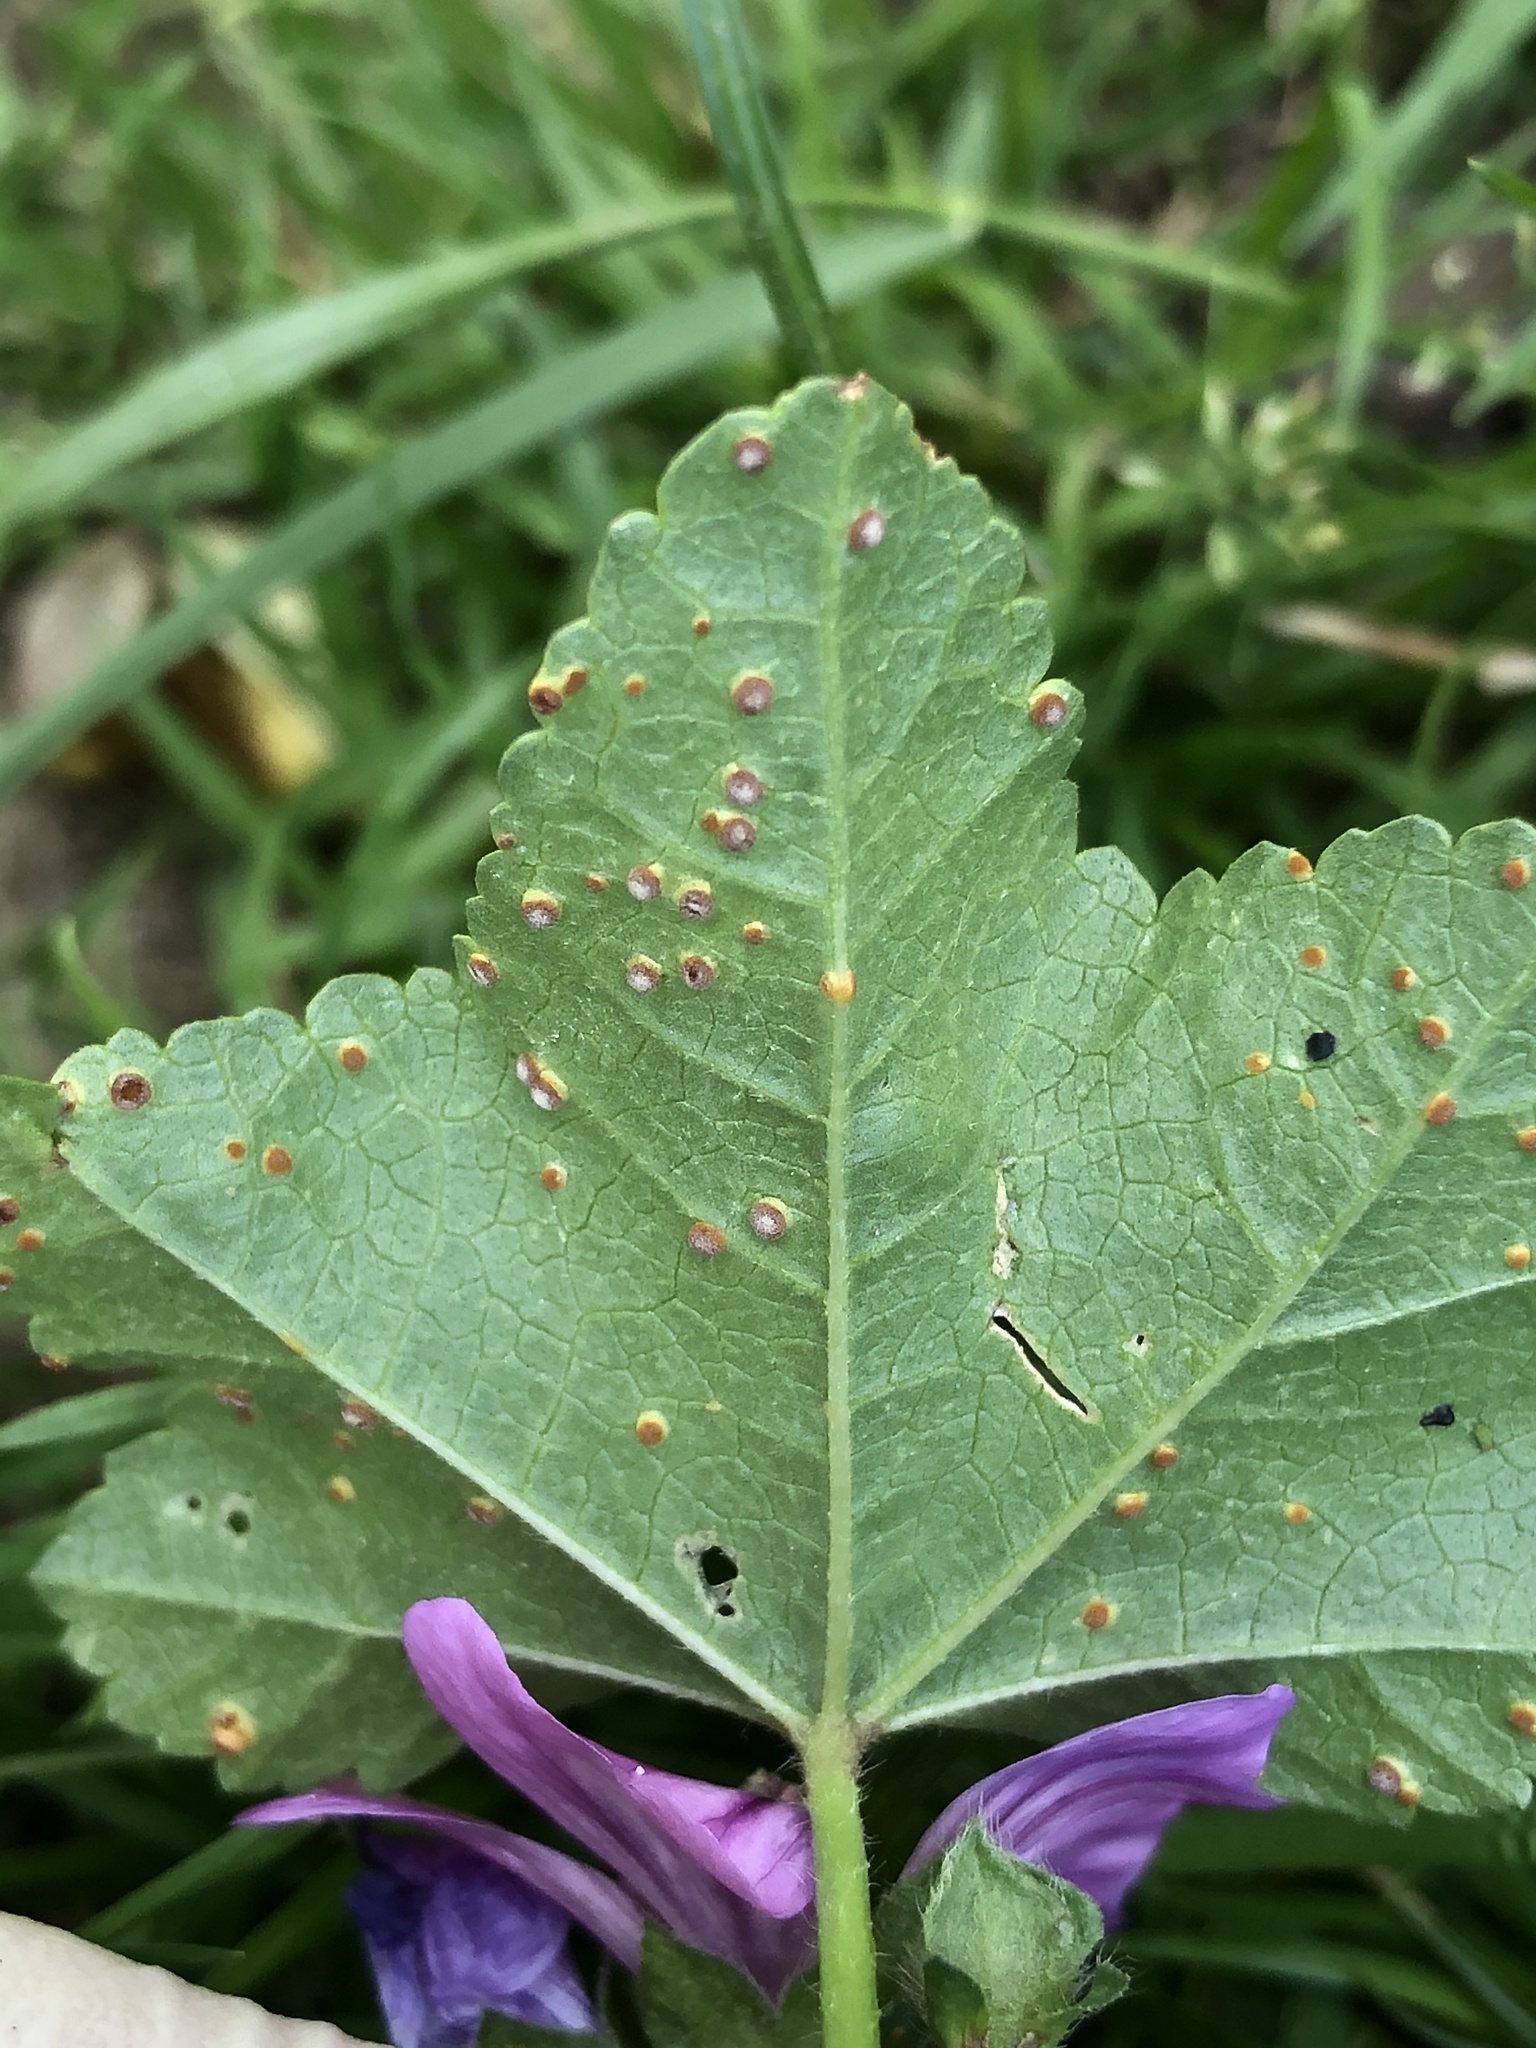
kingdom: Fungi
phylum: Basidiomycota
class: Pucciniomycetes
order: Pucciniales
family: Pucciniaceae
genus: Puccinia
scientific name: Puccinia malvacearum
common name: Hollyhock rust
